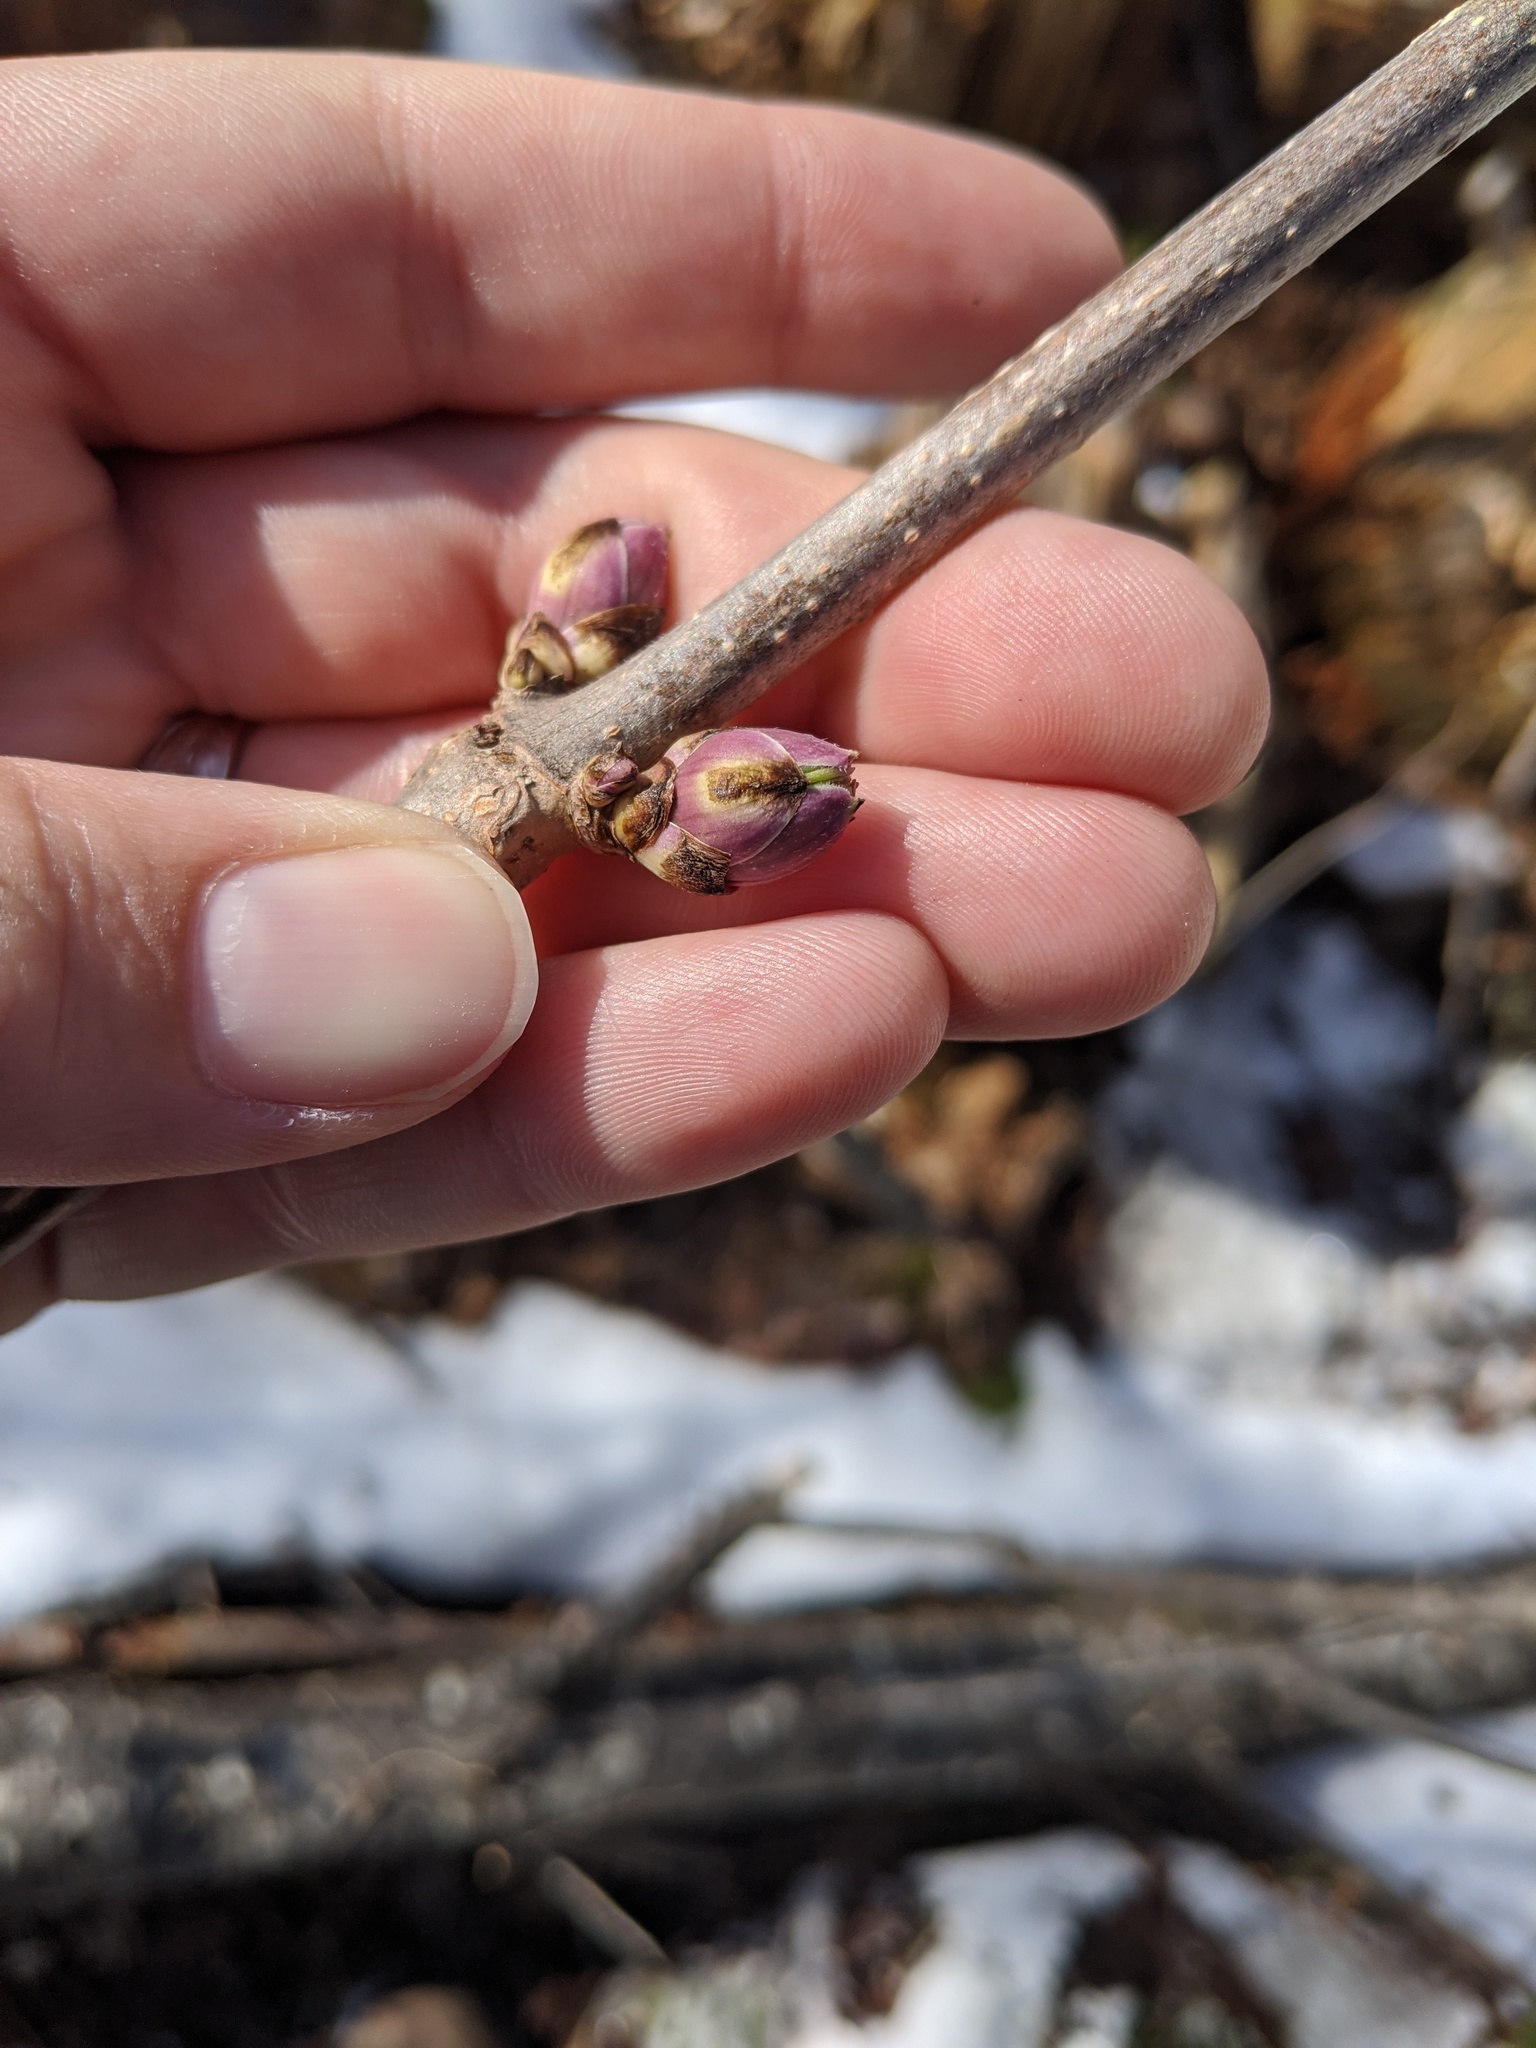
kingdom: Plantae
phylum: Tracheophyta
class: Magnoliopsida
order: Dipsacales
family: Viburnaceae
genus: Sambucus
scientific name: Sambucus racemosa
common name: Red-berried elder
